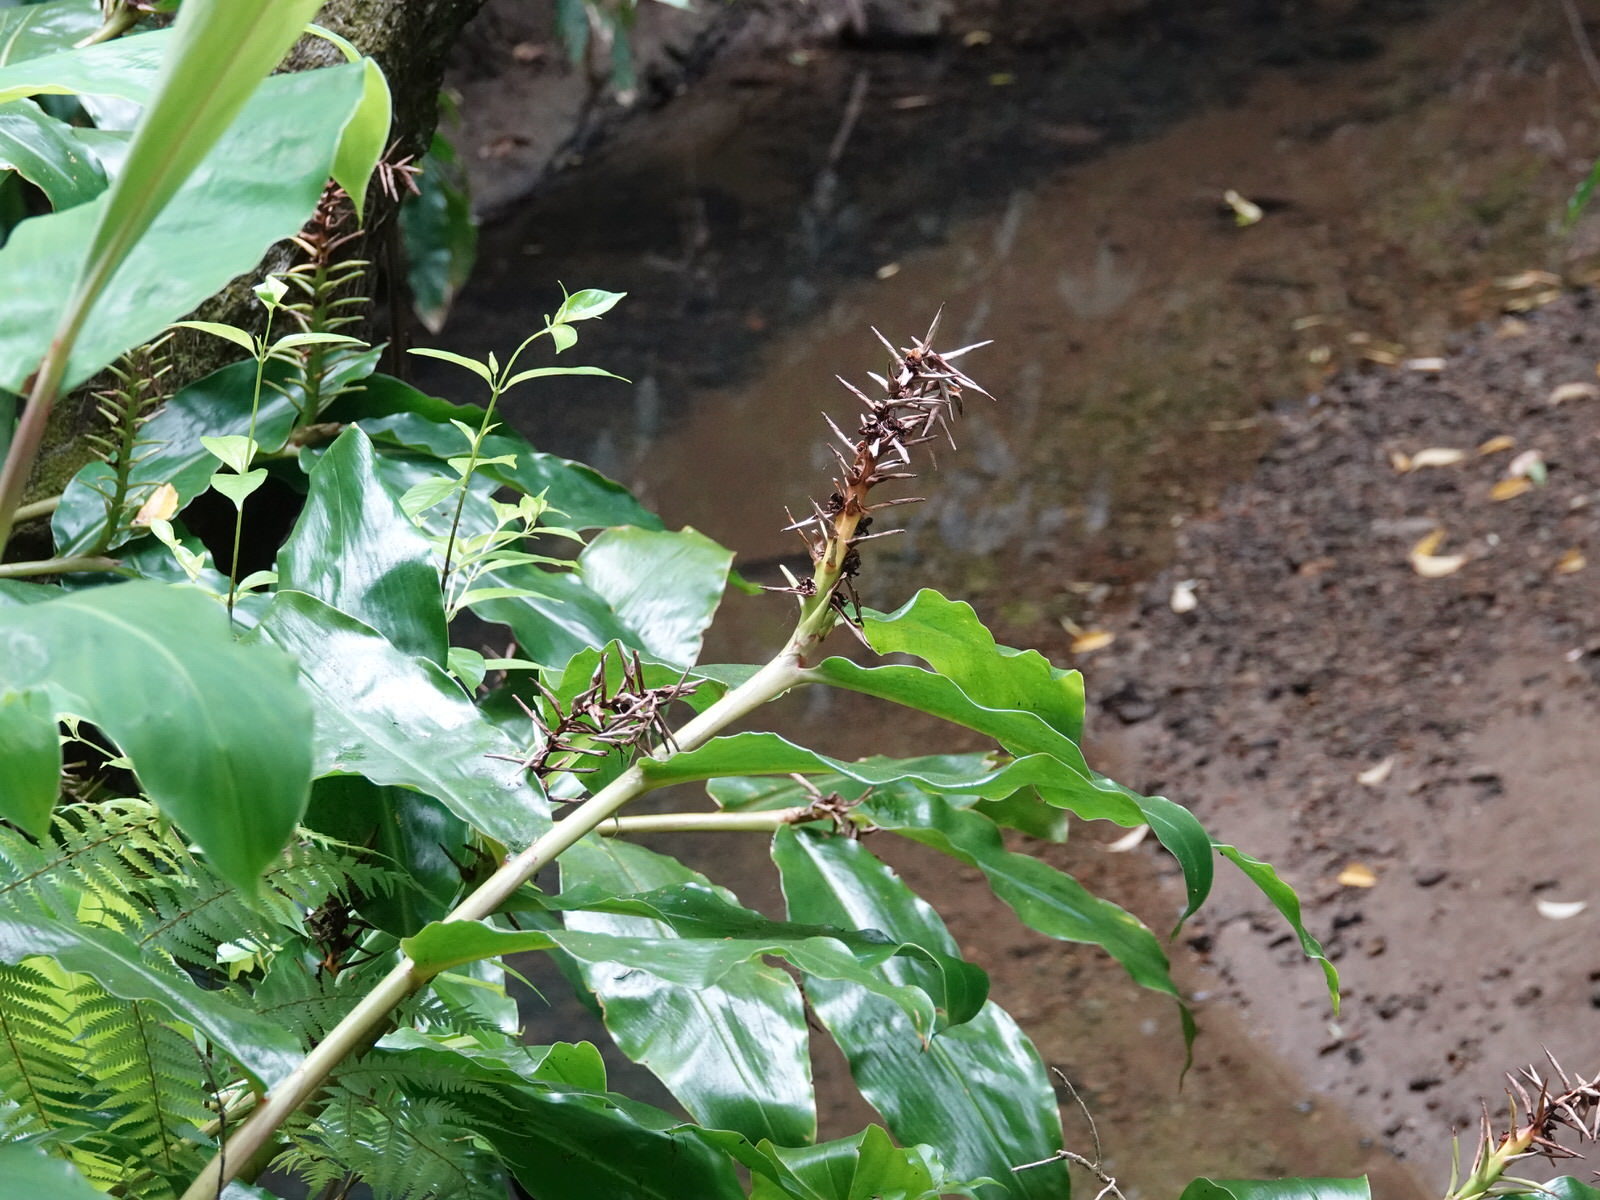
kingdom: Plantae
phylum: Tracheophyta
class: Liliopsida
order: Zingiberales
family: Zingiberaceae
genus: Hedychium
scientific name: Hedychium gardnerianum
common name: Himalayan ginger
